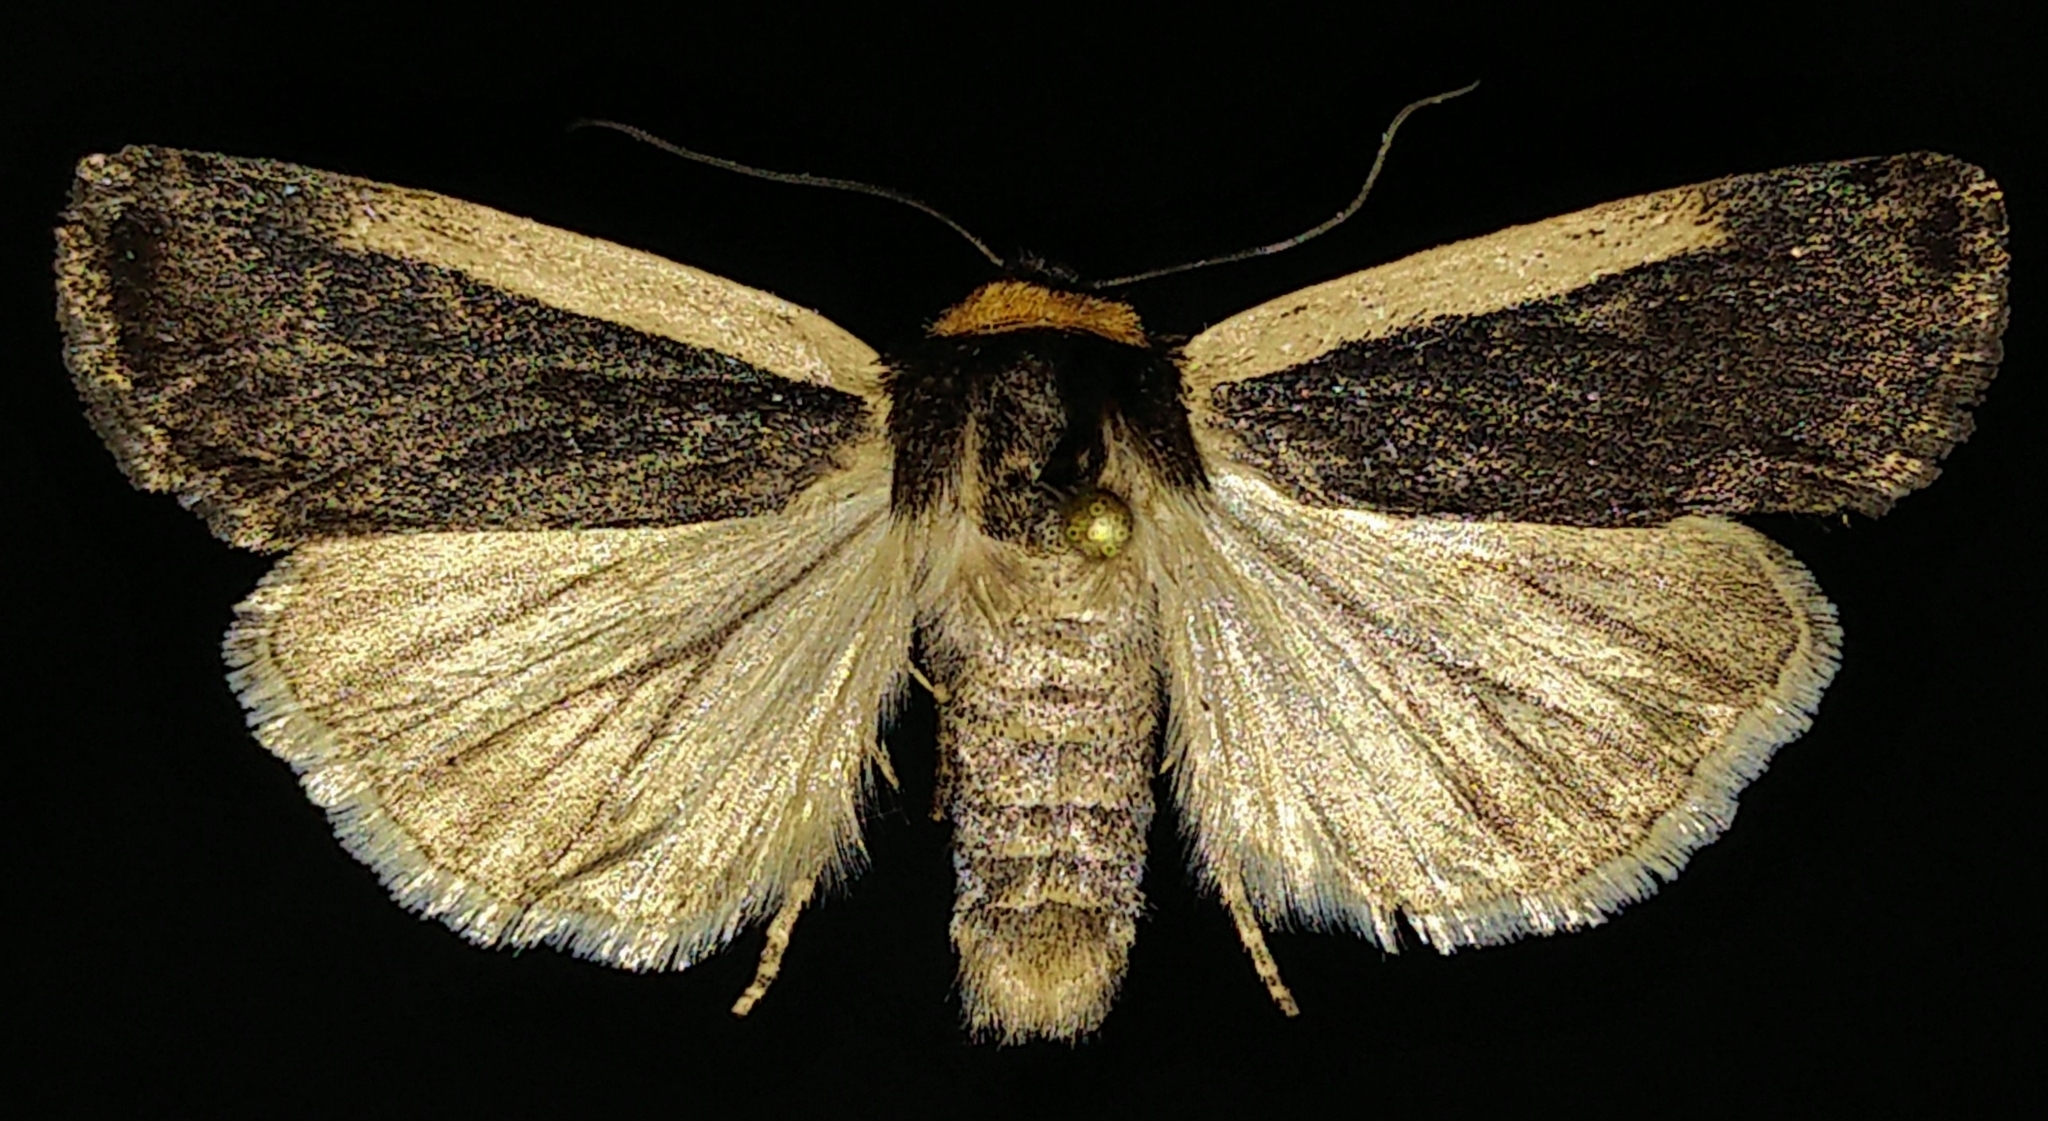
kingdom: Animalia
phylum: Arthropoda
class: Insecta
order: Lepidoptera
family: Noctuidae
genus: Abagrotis
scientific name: Abagrotis vittifrons
